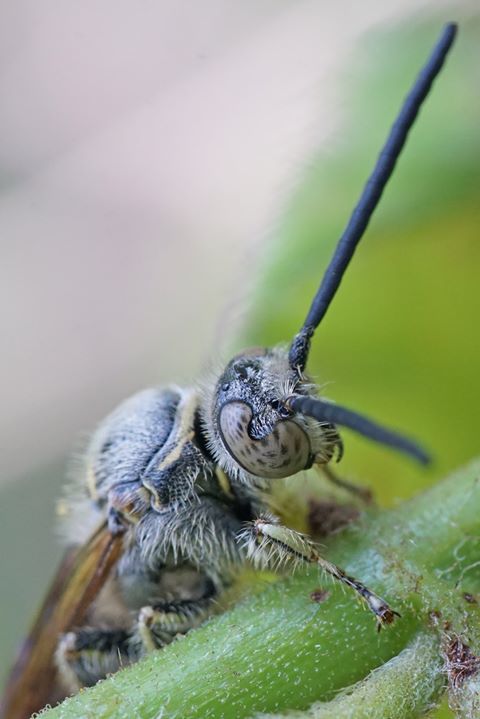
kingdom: Animalia
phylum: Arthropoda
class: Insecta
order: Hymenoptera
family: Scoliidae
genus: Dielis
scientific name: Dielis
